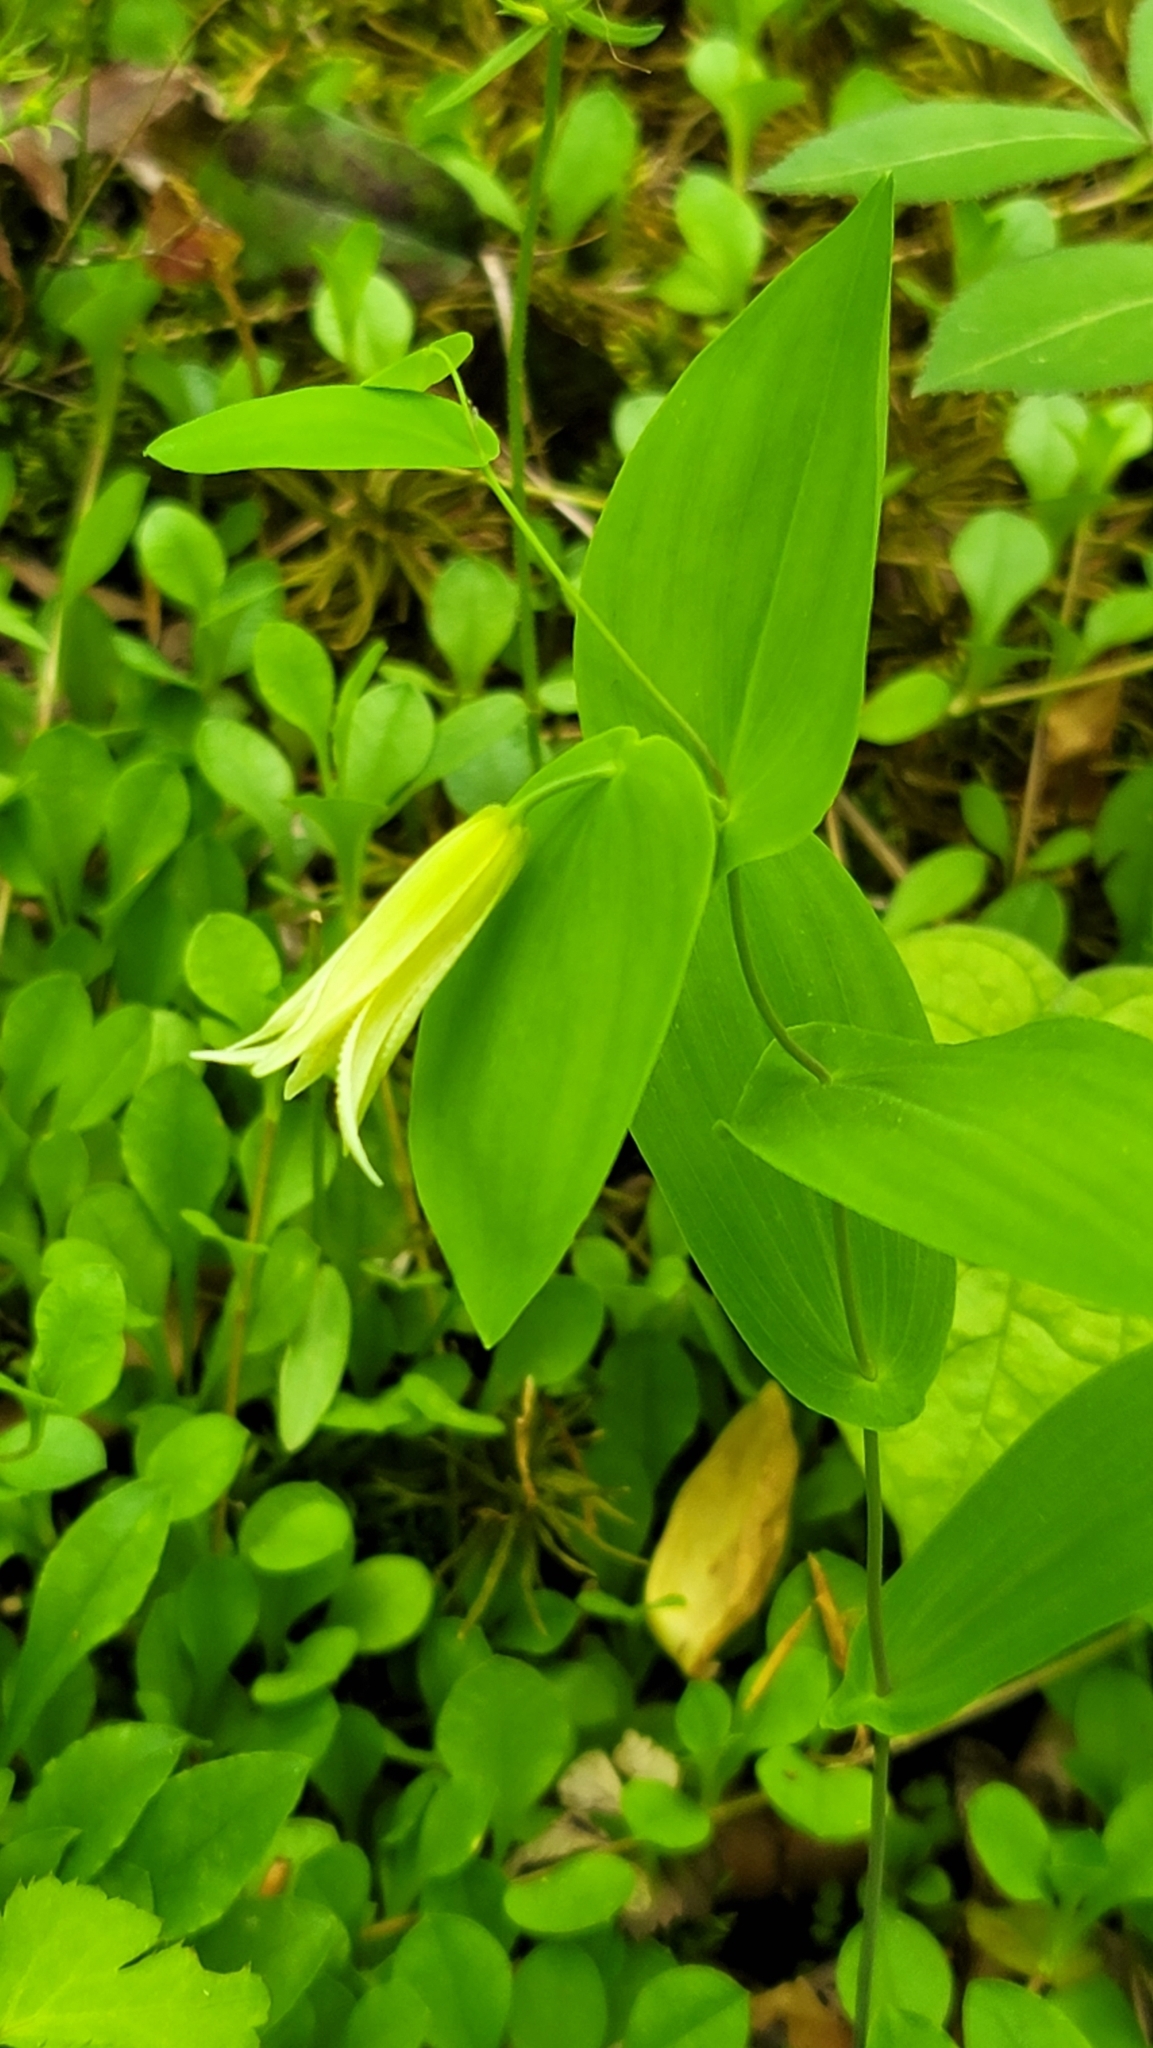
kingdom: Plantae
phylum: Tracheophyta
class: Liliopsida
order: Liliales
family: Colchicaceae
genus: Uvularia
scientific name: Uvularia perfoliata
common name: Perfoliate bellwort
